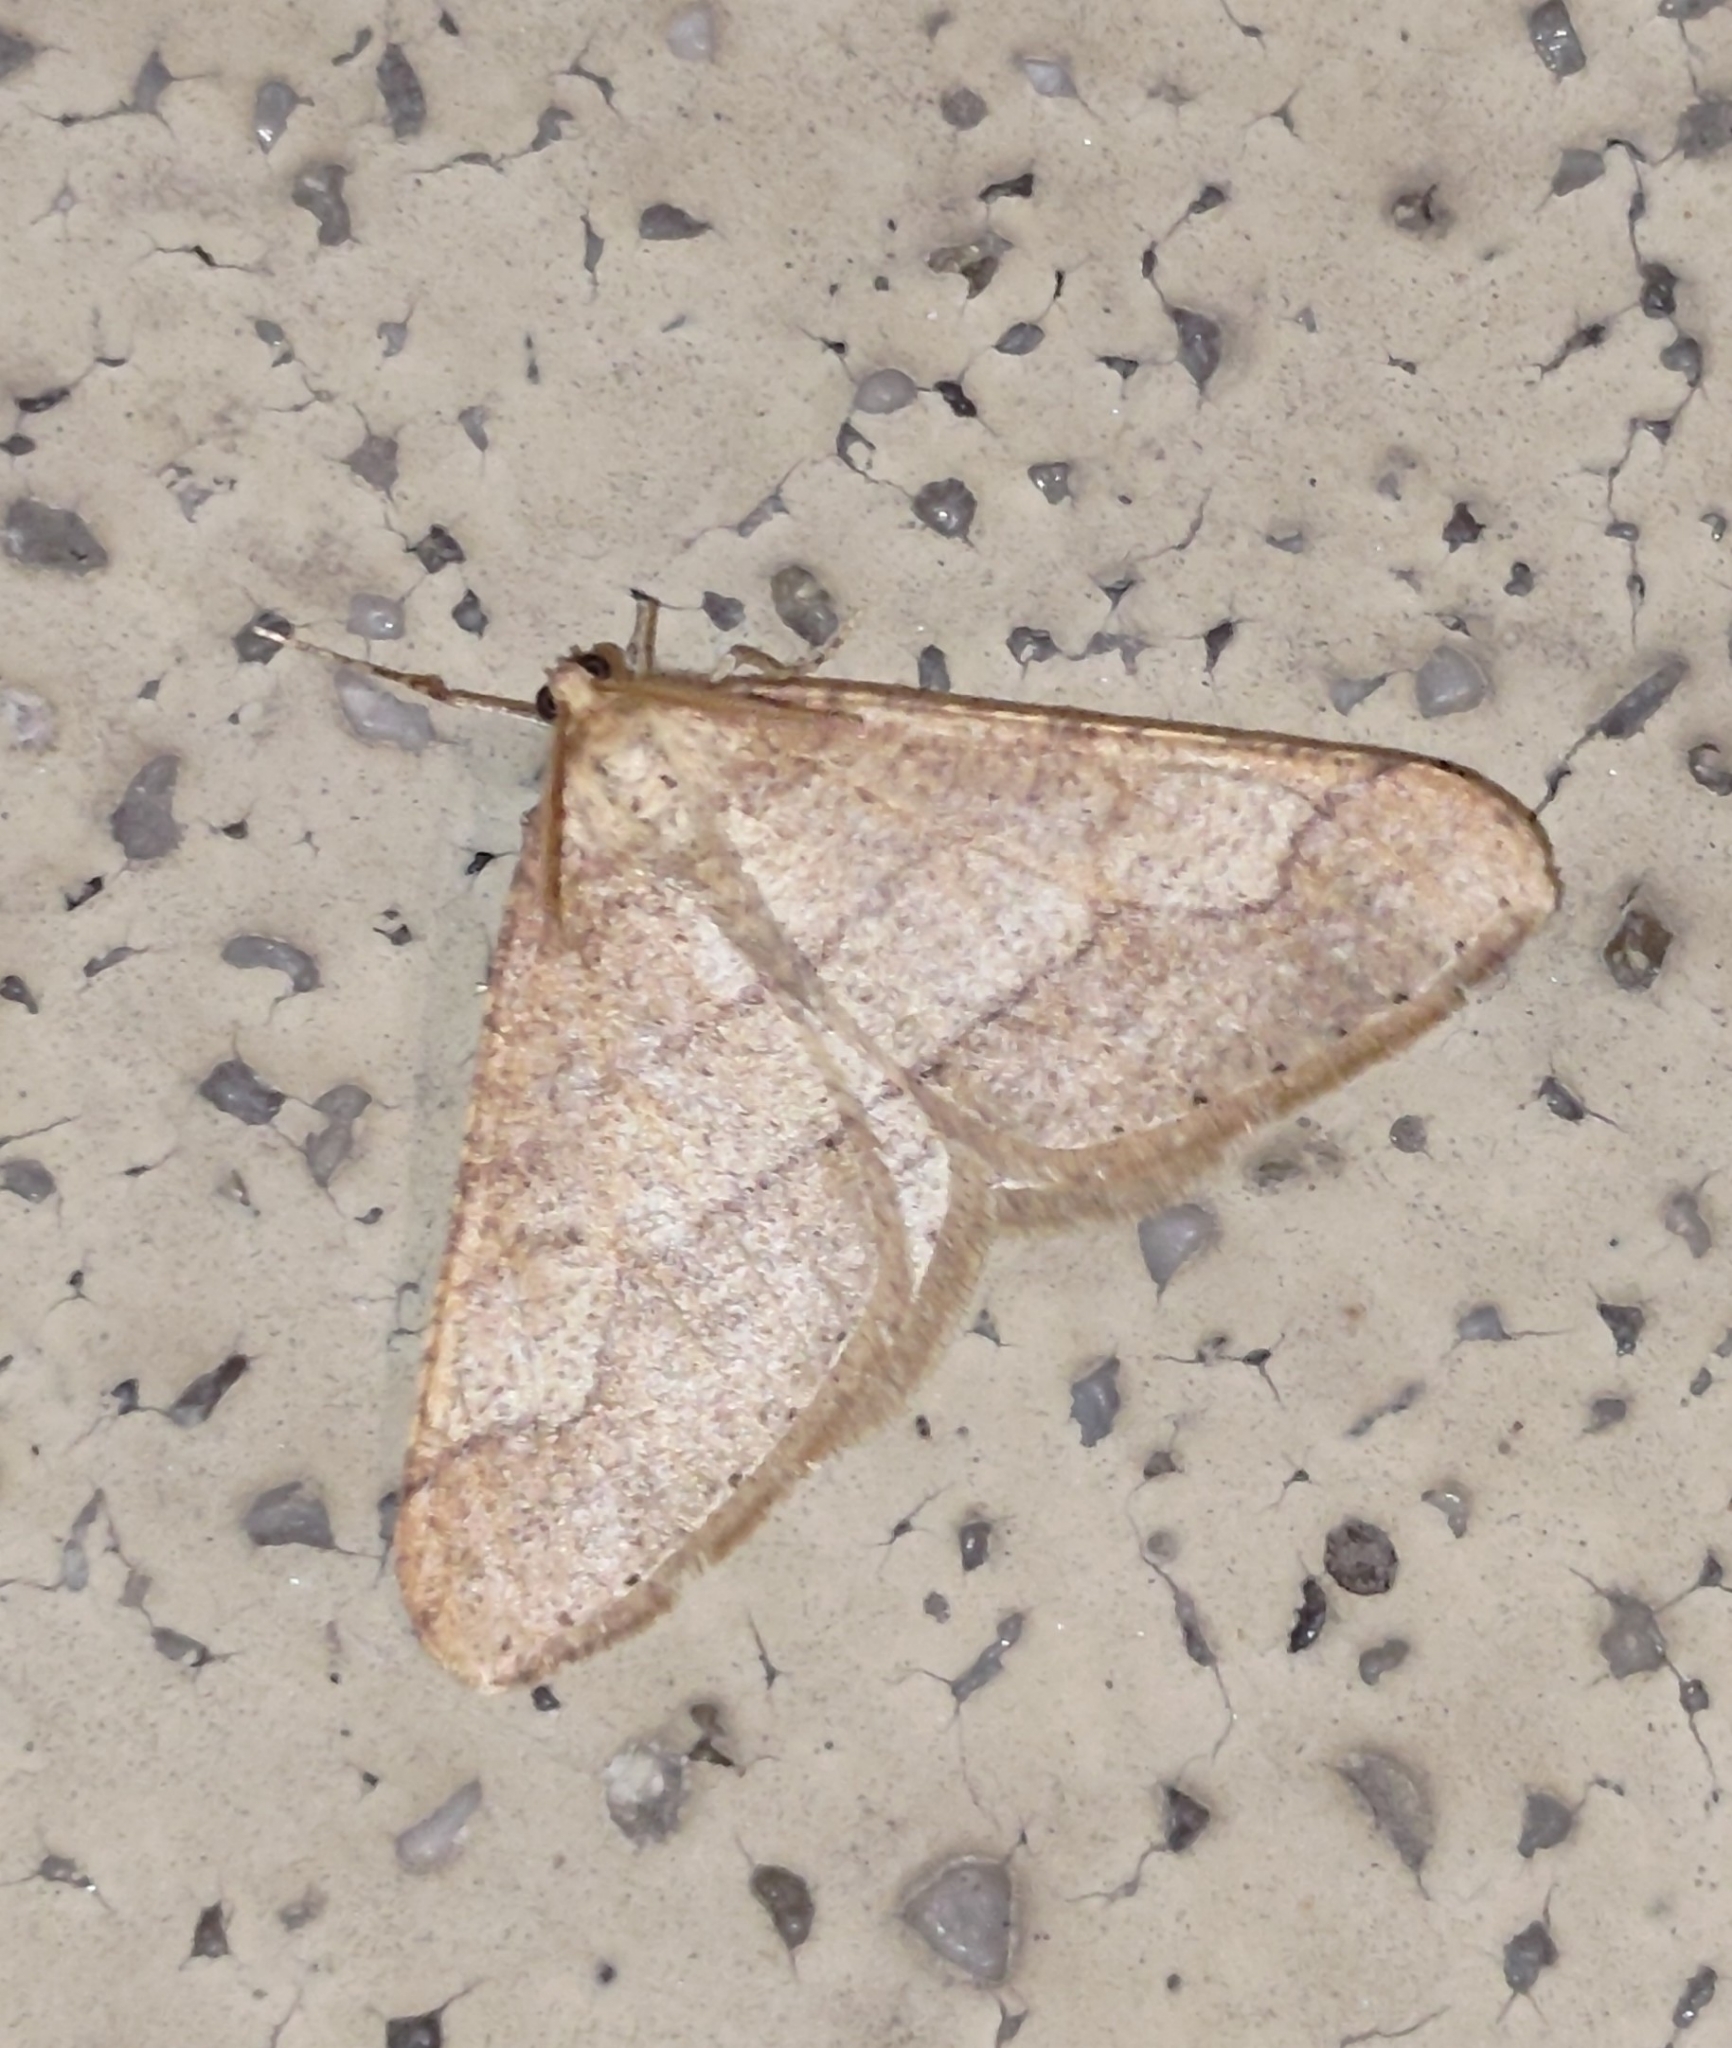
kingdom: Animalia
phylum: Arthropoda
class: Insecta
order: Lepidoptera
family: Geometridae
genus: Agriopis
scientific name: Agriopis marginaria
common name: Dotted border
